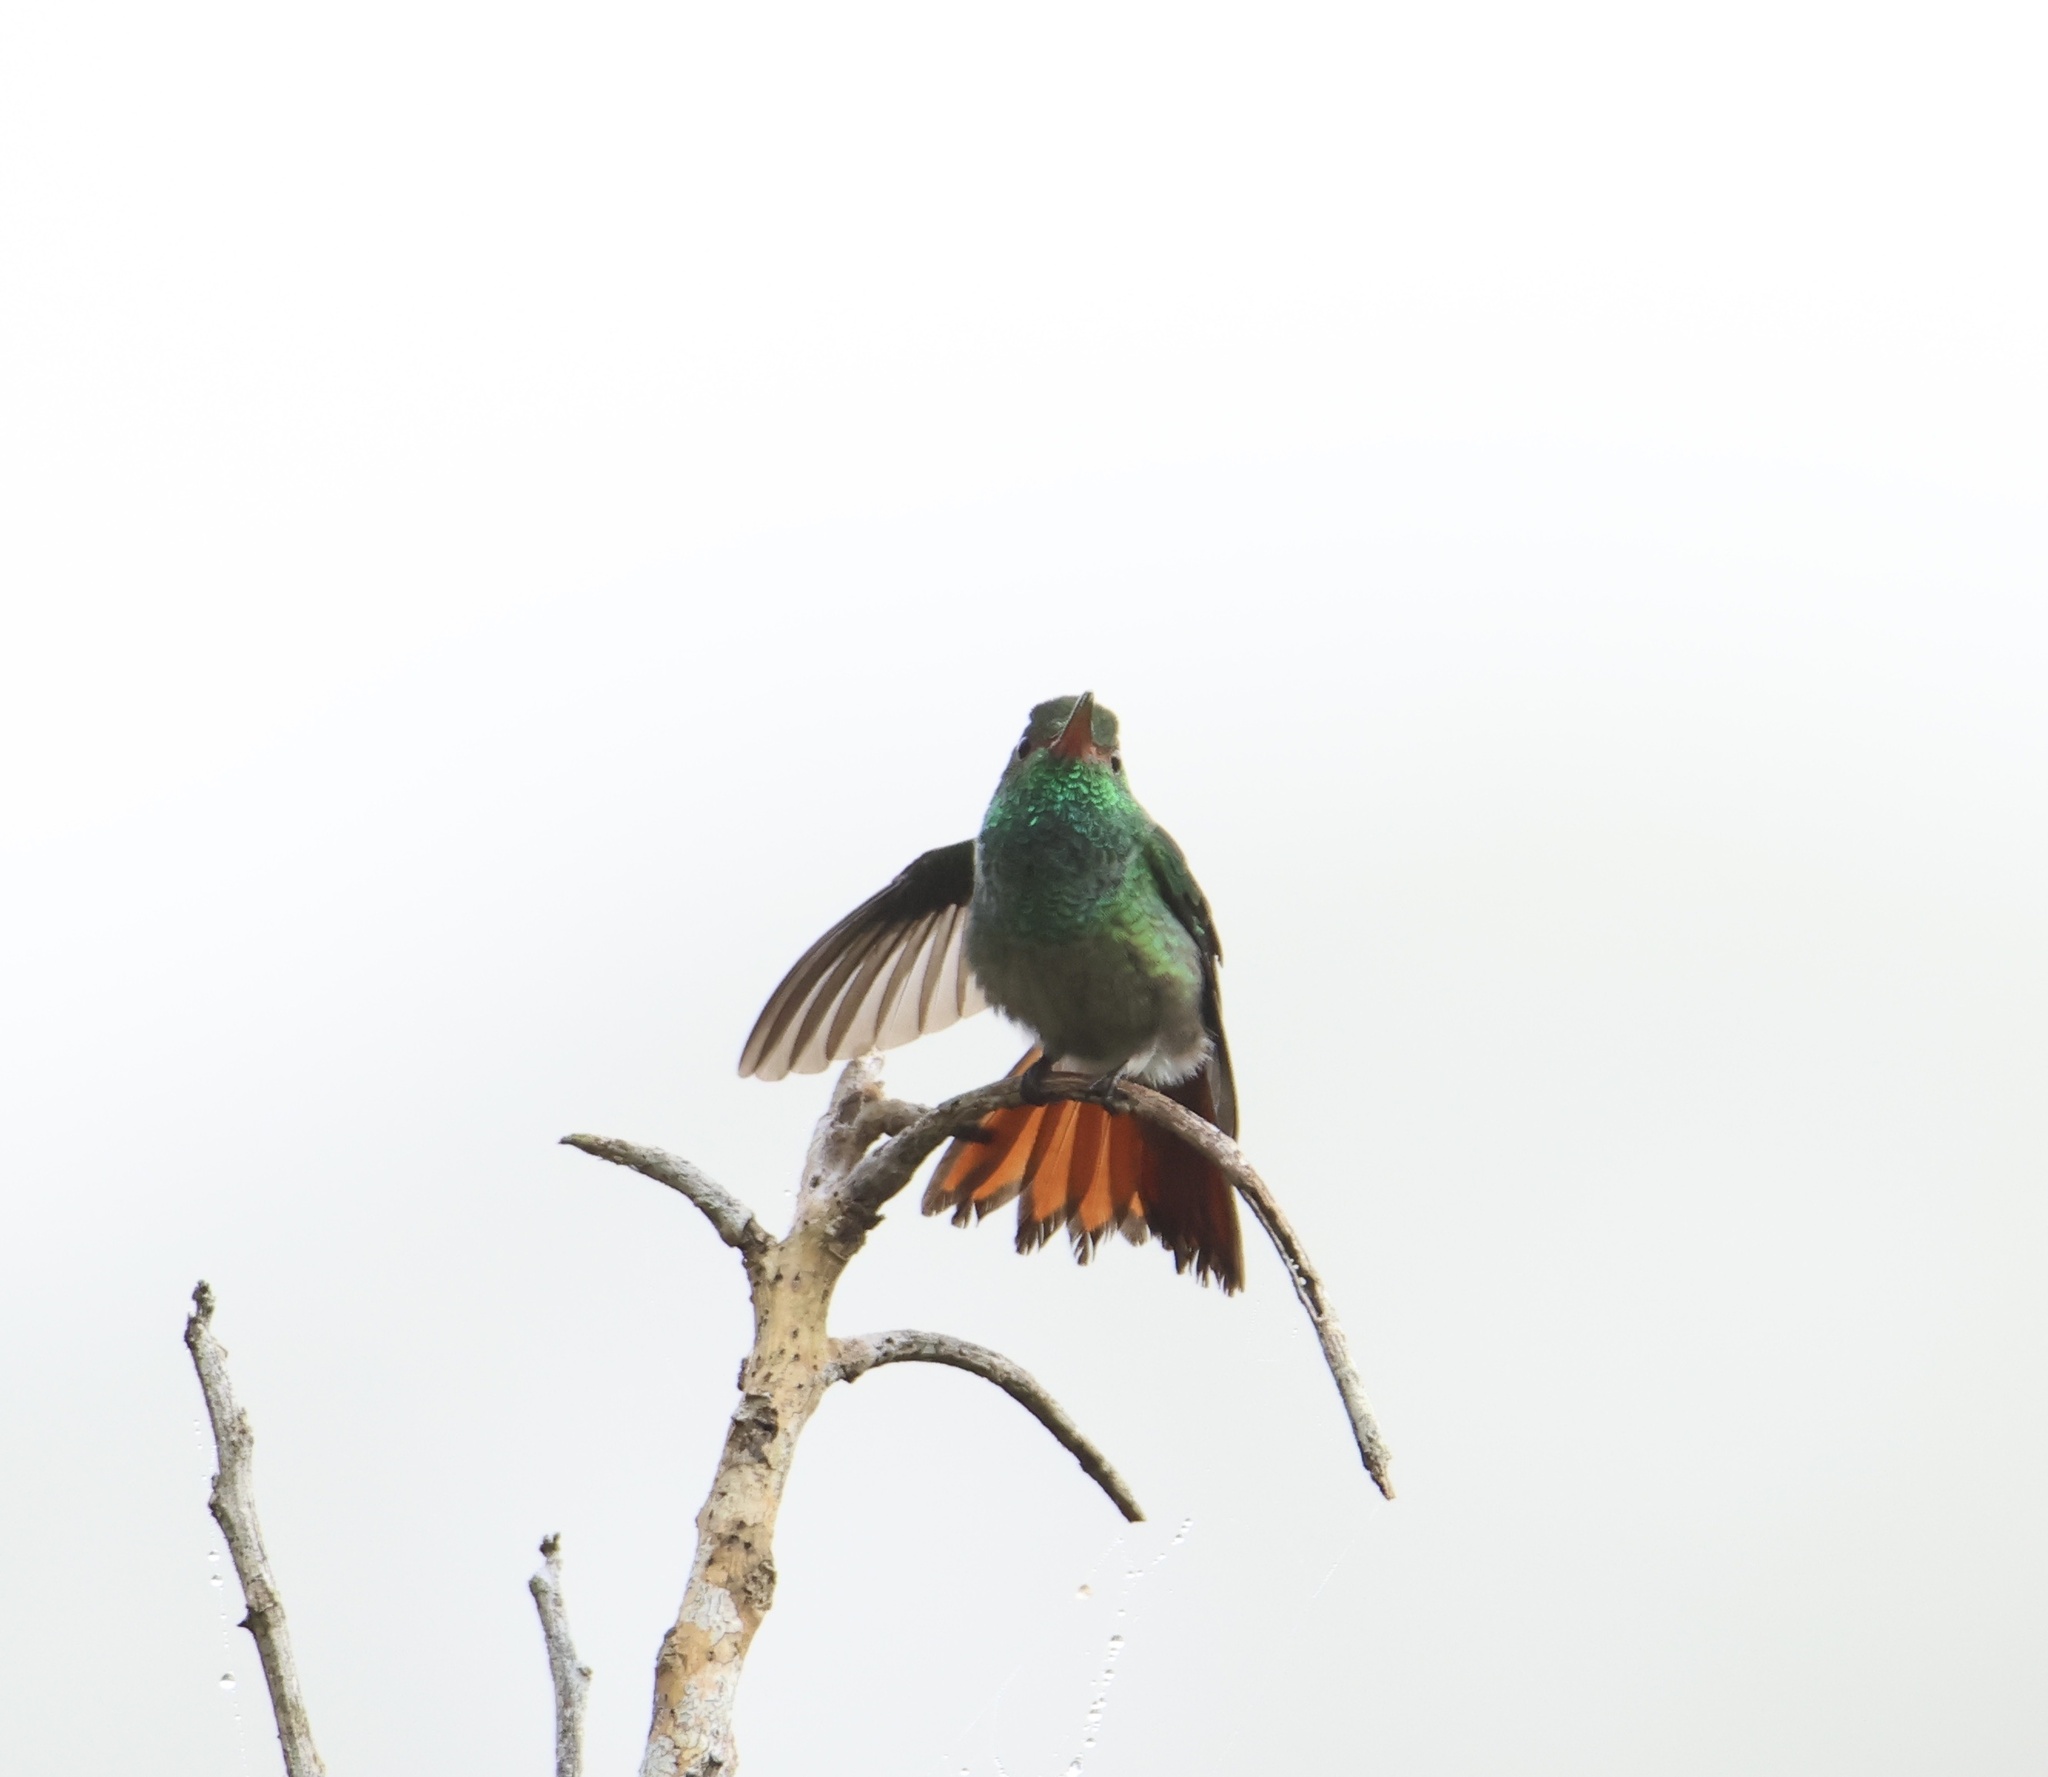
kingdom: Animalia
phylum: Chordata
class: Aves
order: Apodiformes
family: Trochilidae
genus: Amazilia
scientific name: Amazilia tzacatl
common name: Rufous-tailed hummingbird
